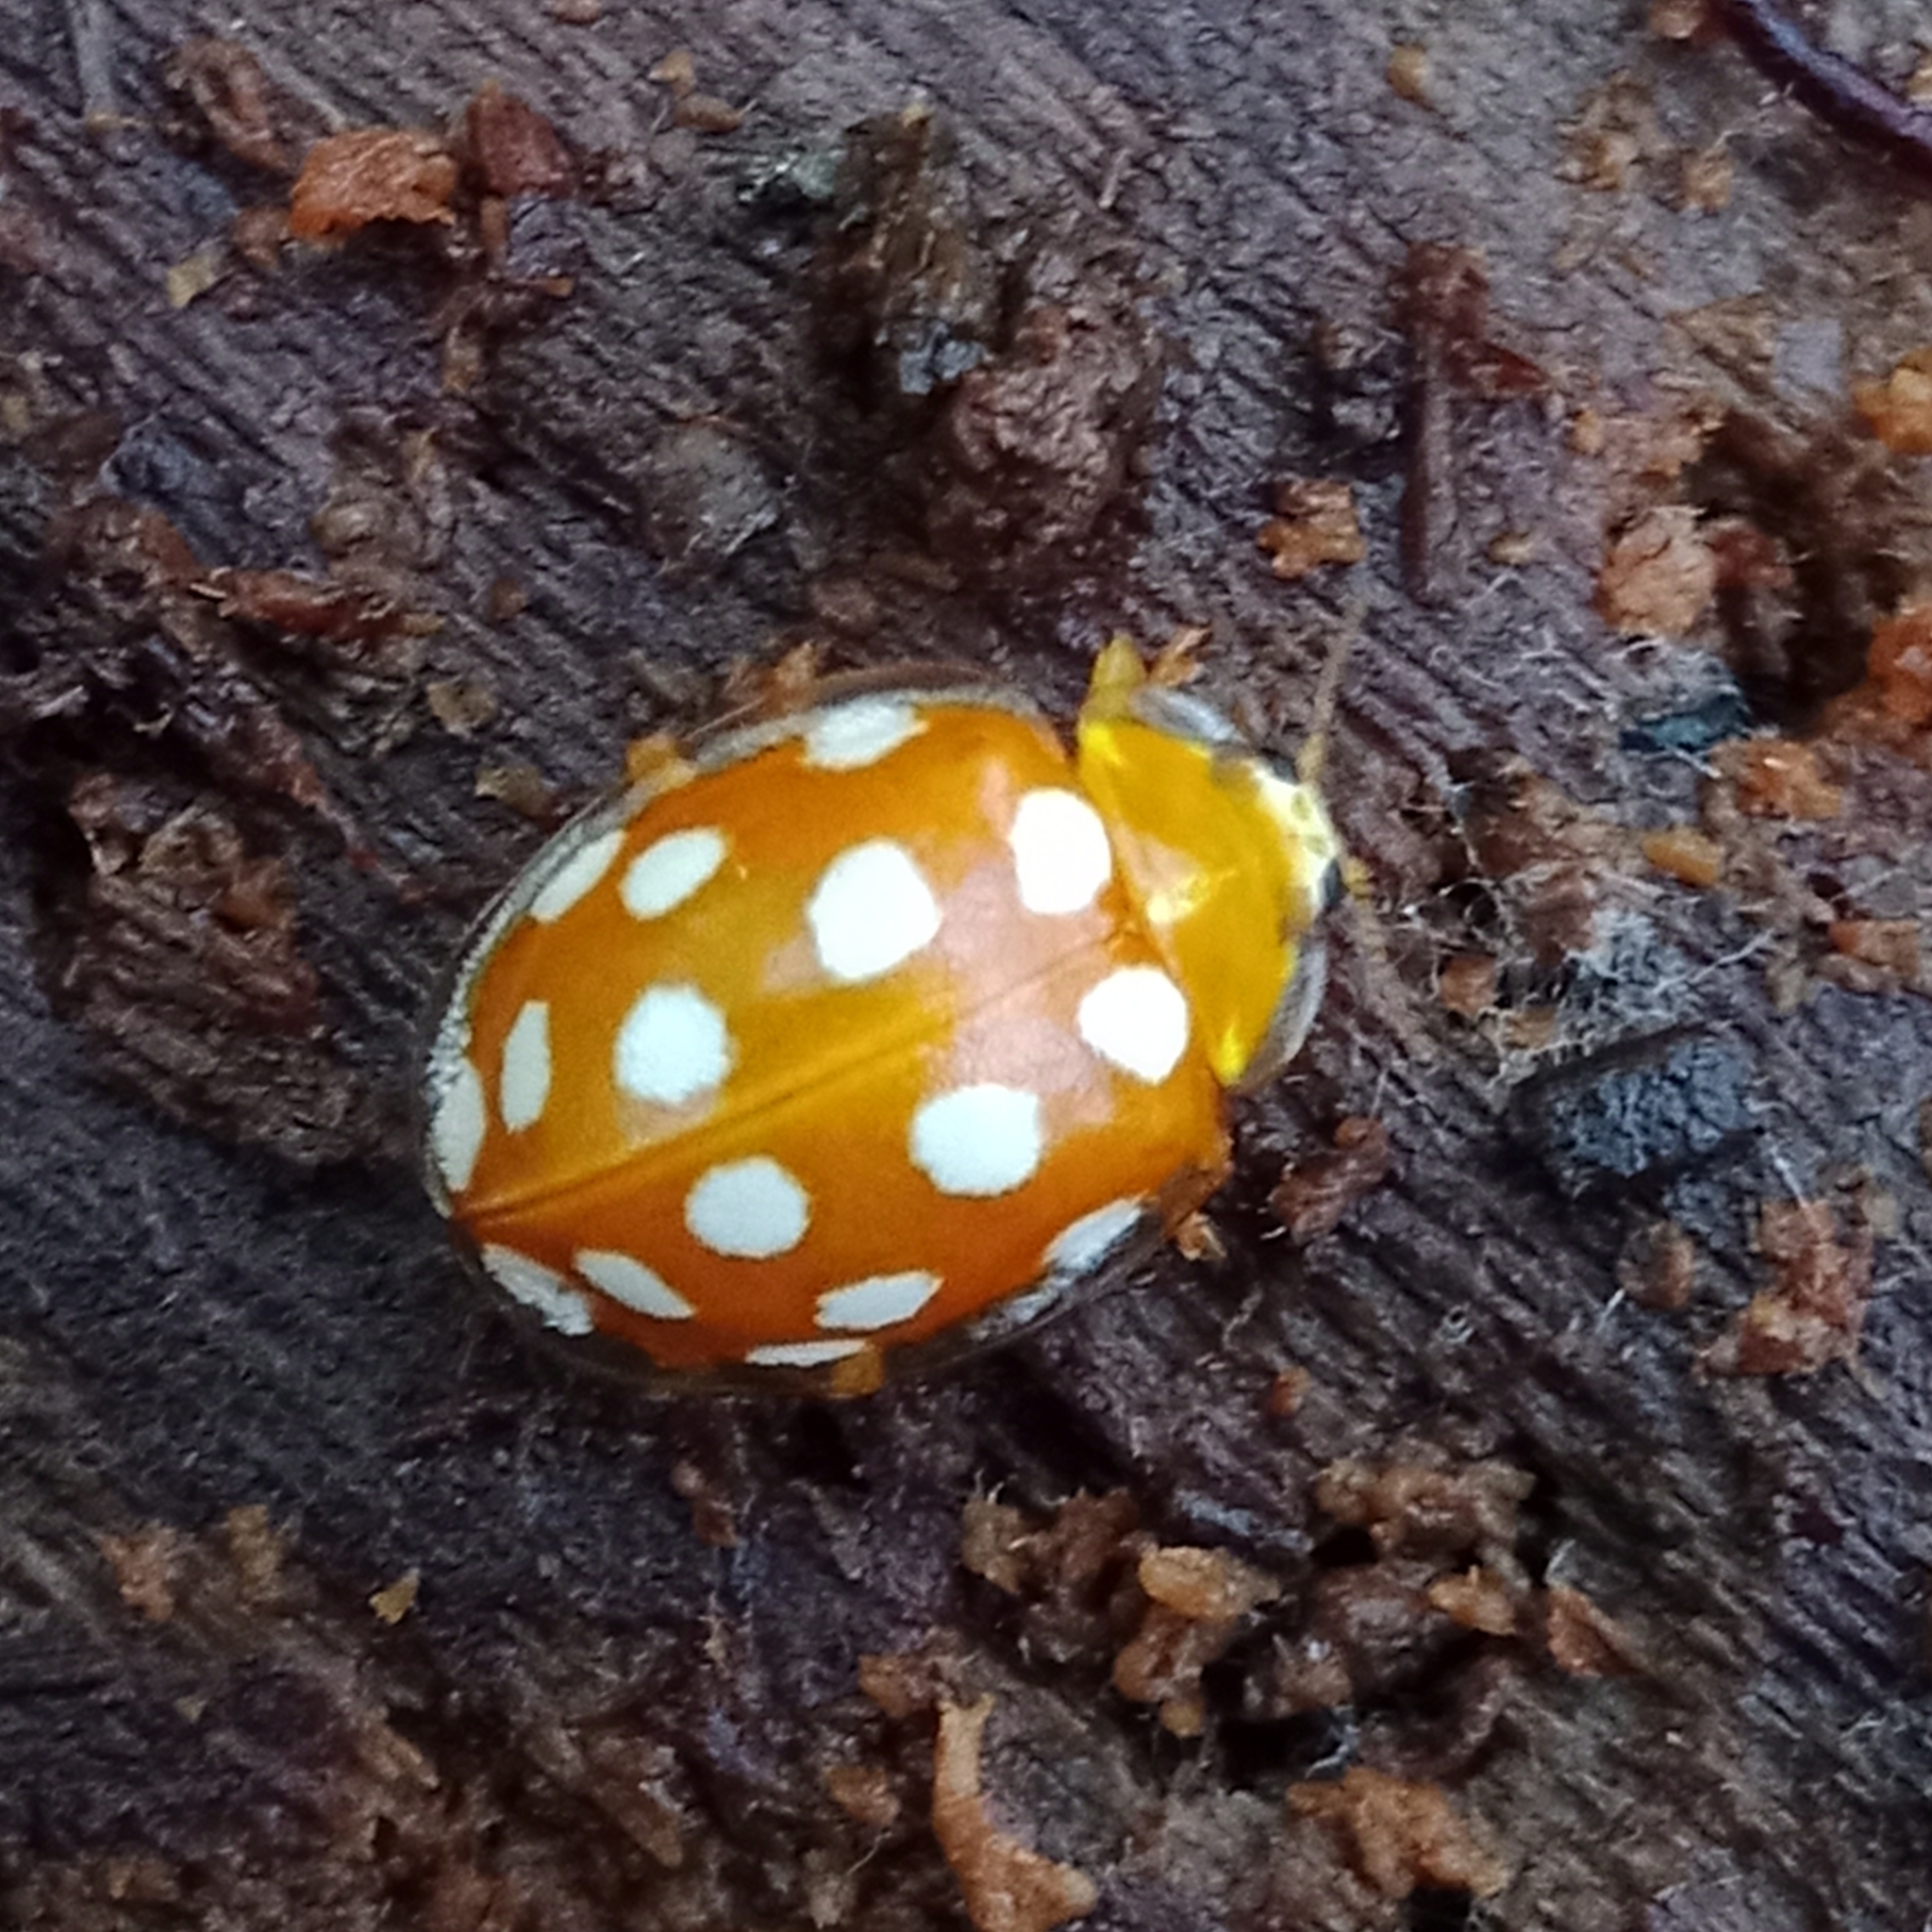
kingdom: Animalia
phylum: Arthropoda
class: Insecta
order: Coleoptera
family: Coccinellidae
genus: Halyzia
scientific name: Halyzia sedecimguttata
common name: Orange ladybird
